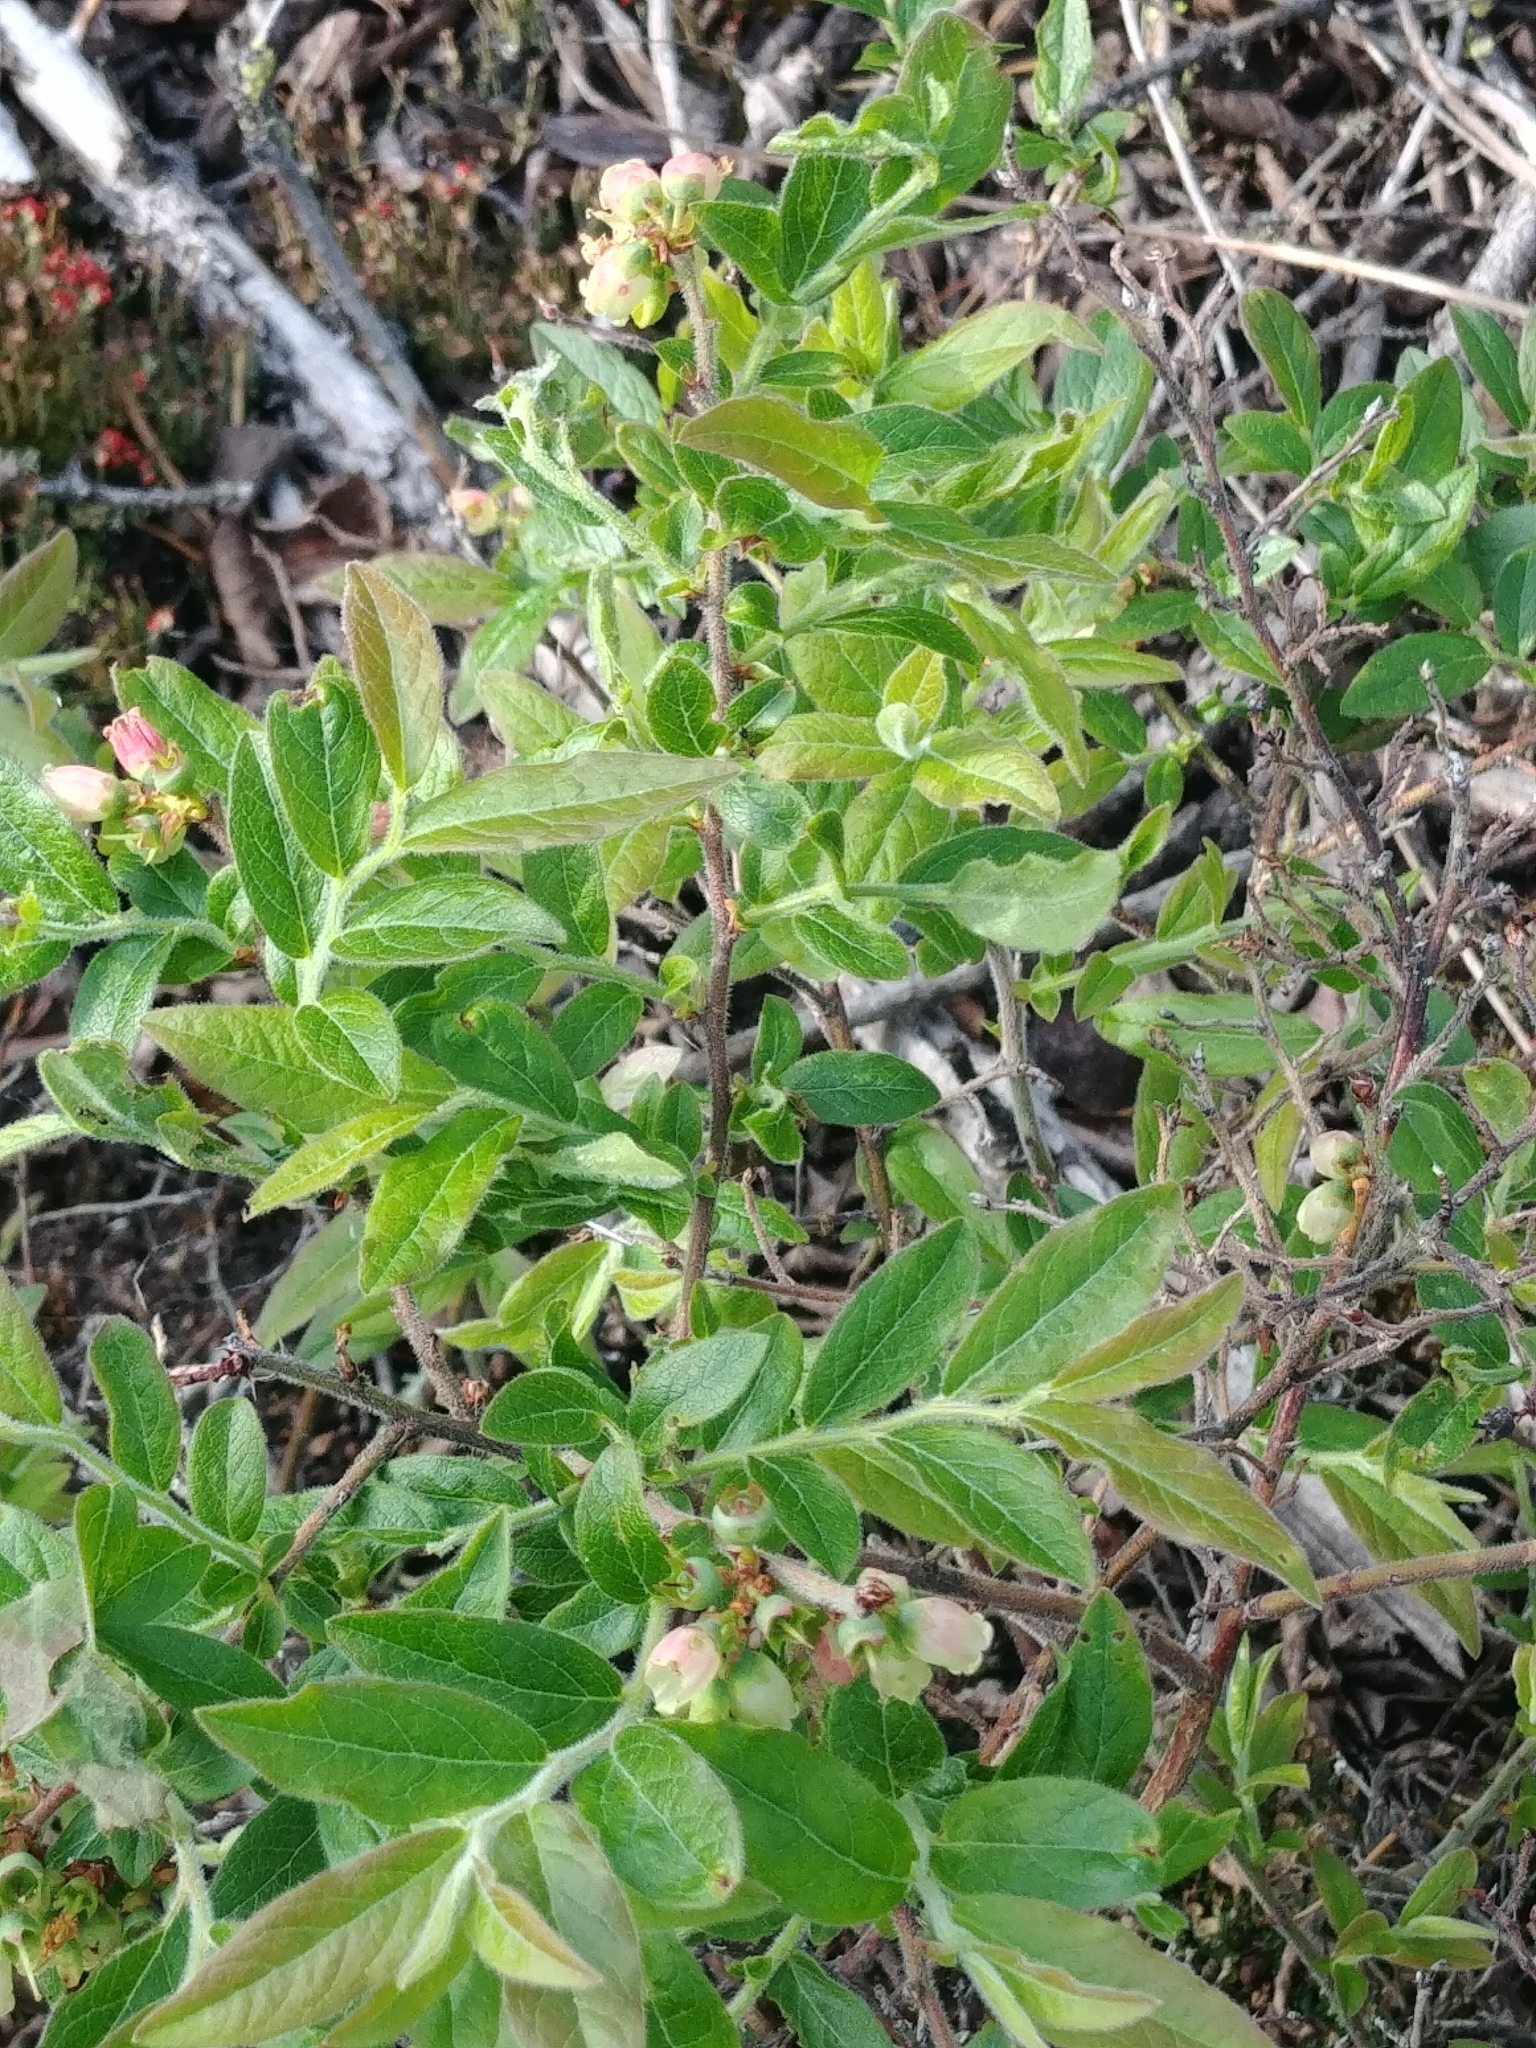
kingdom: Plantae
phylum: Tracheophyta
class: Magnoliopsida
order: Ericales
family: Ericaceae
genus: Vaccinium
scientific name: Vaccinium myrtilloides
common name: Canada blueberry
